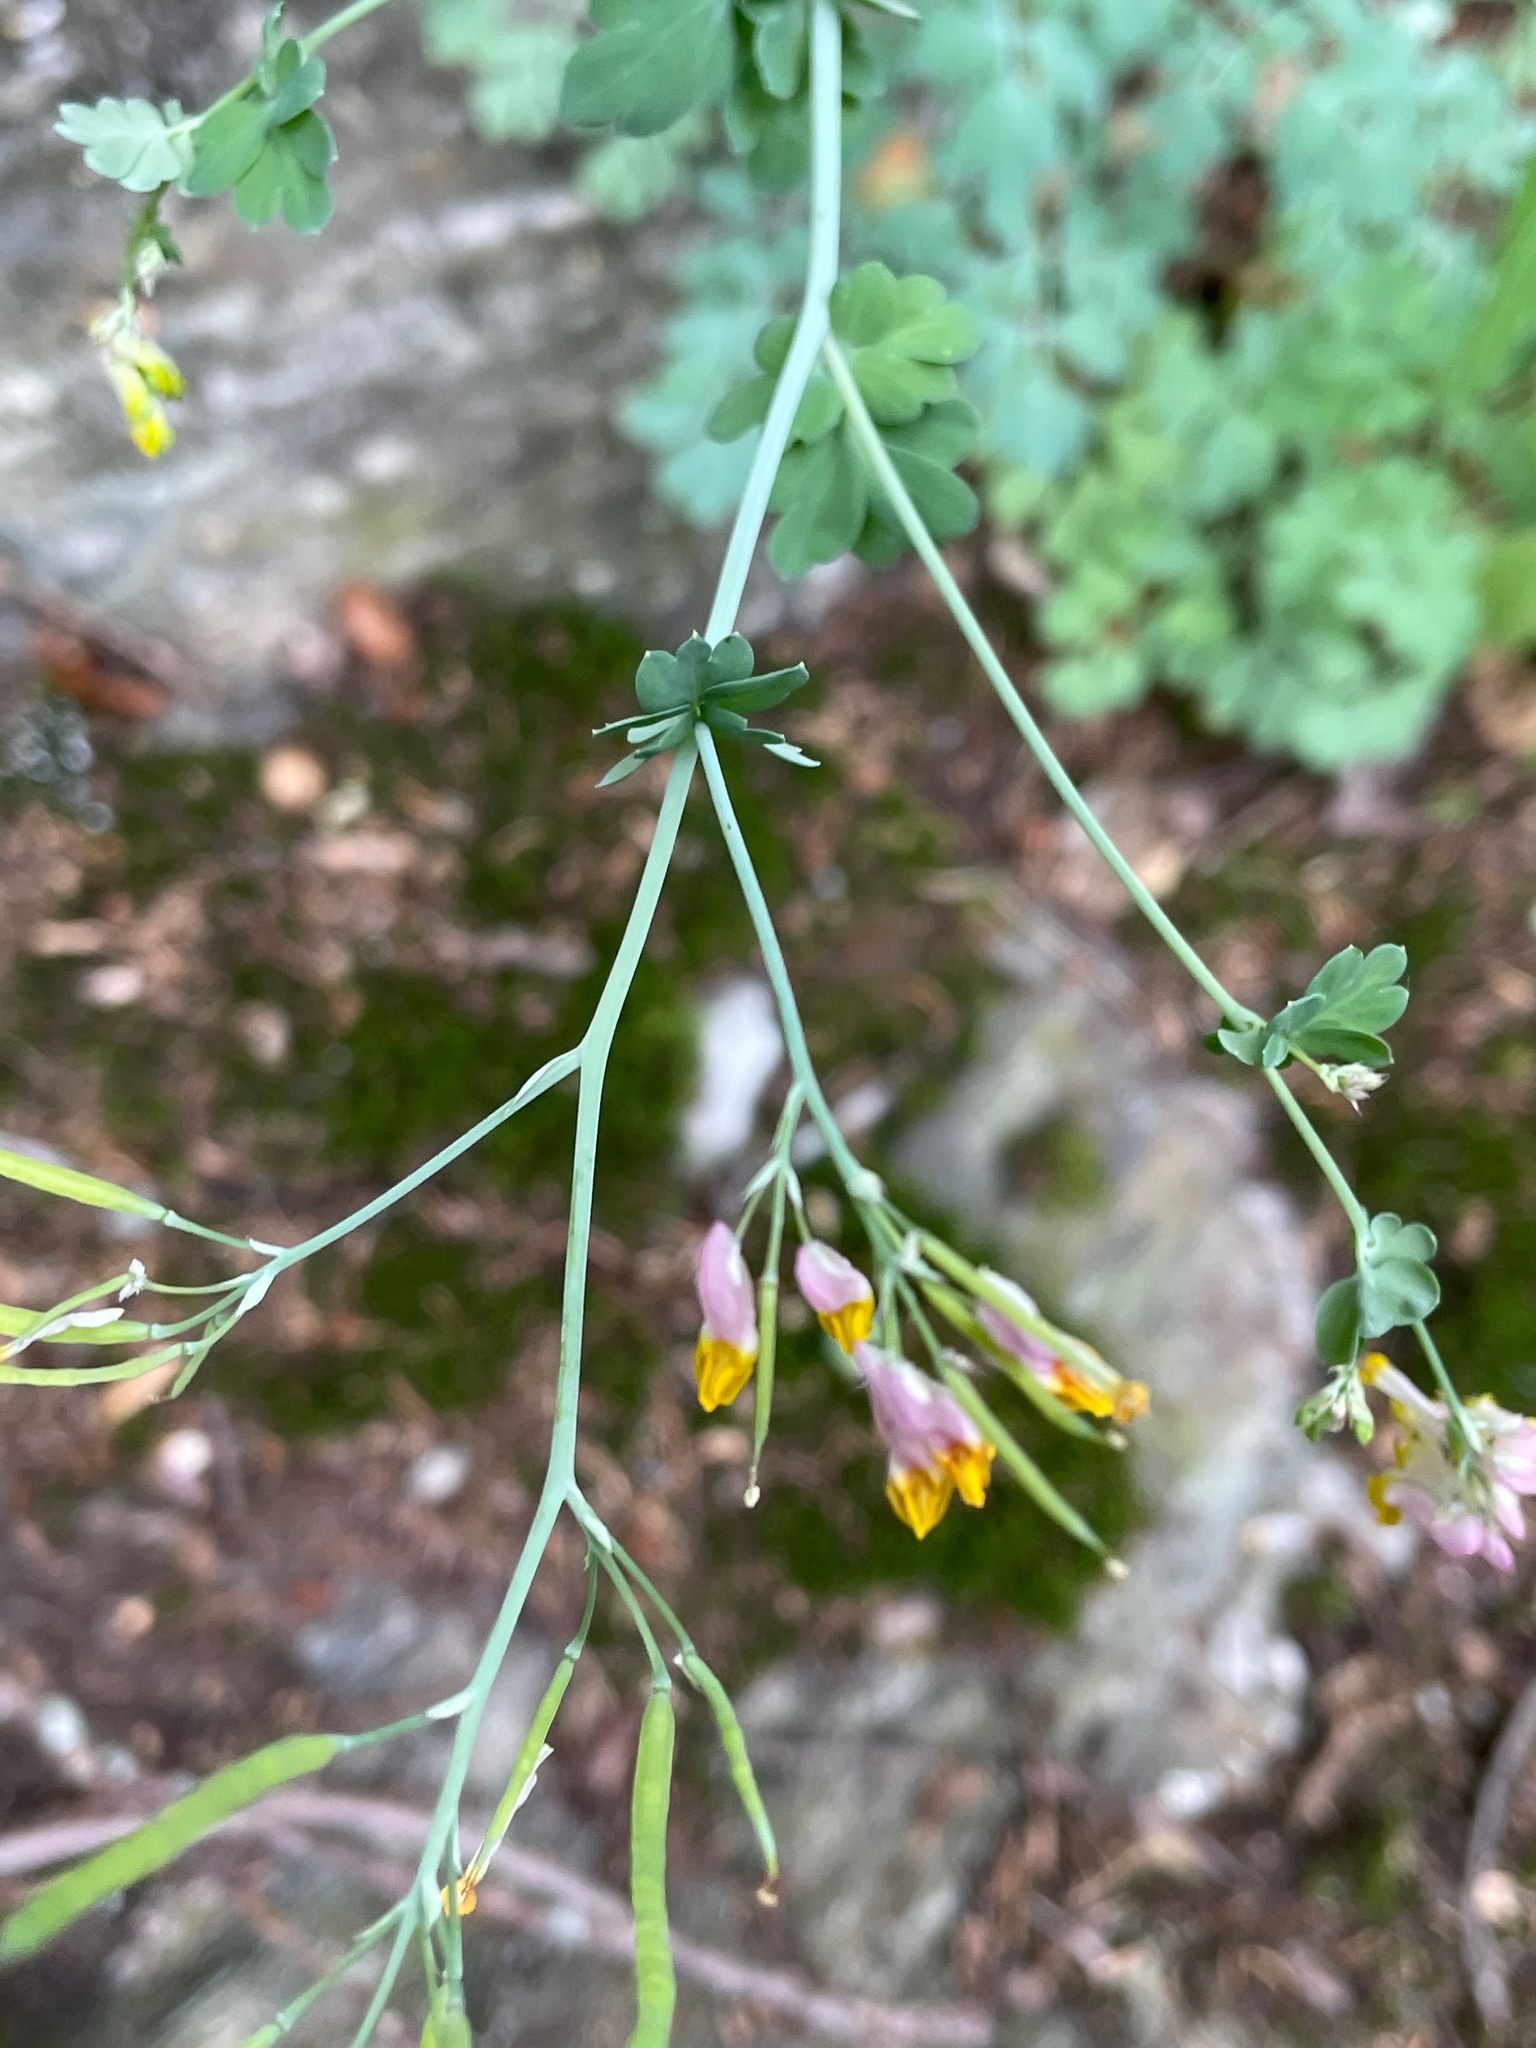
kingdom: Plantae
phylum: Tracheophyta
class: Magnoliopsida
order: Ranunculales
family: Papaveraceae
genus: Capnoides
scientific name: Capnoides sempervirens
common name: Rock harlequin
